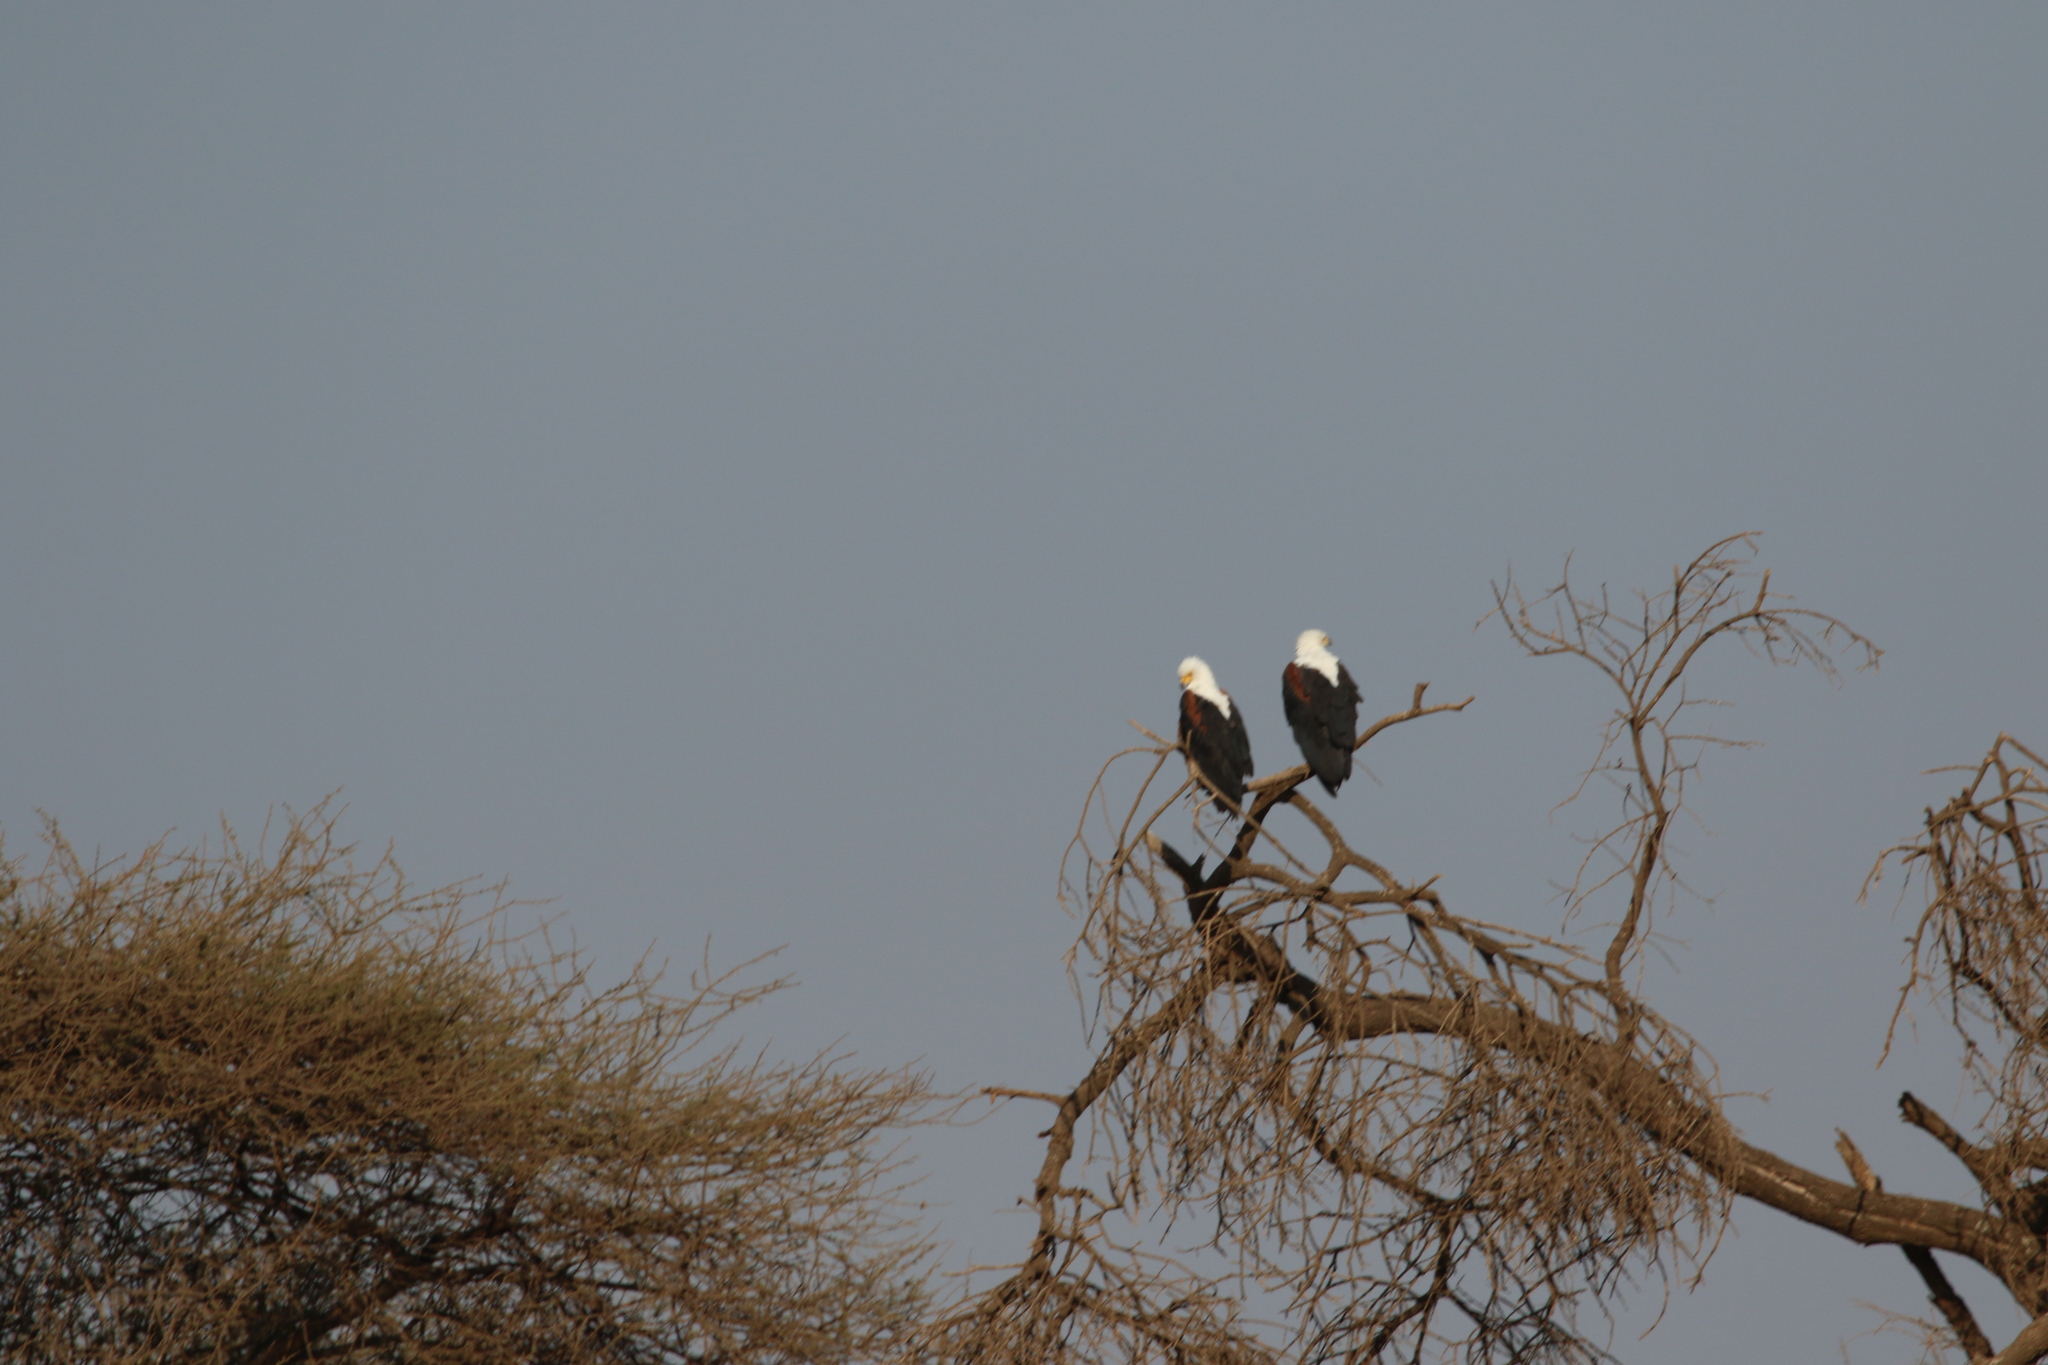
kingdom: Animalia
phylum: Chordata
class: Aves
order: Accipitriformes
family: Accipitridae
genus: Haliaeetus
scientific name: Haliaeetus vocifer
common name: African fish eagle
